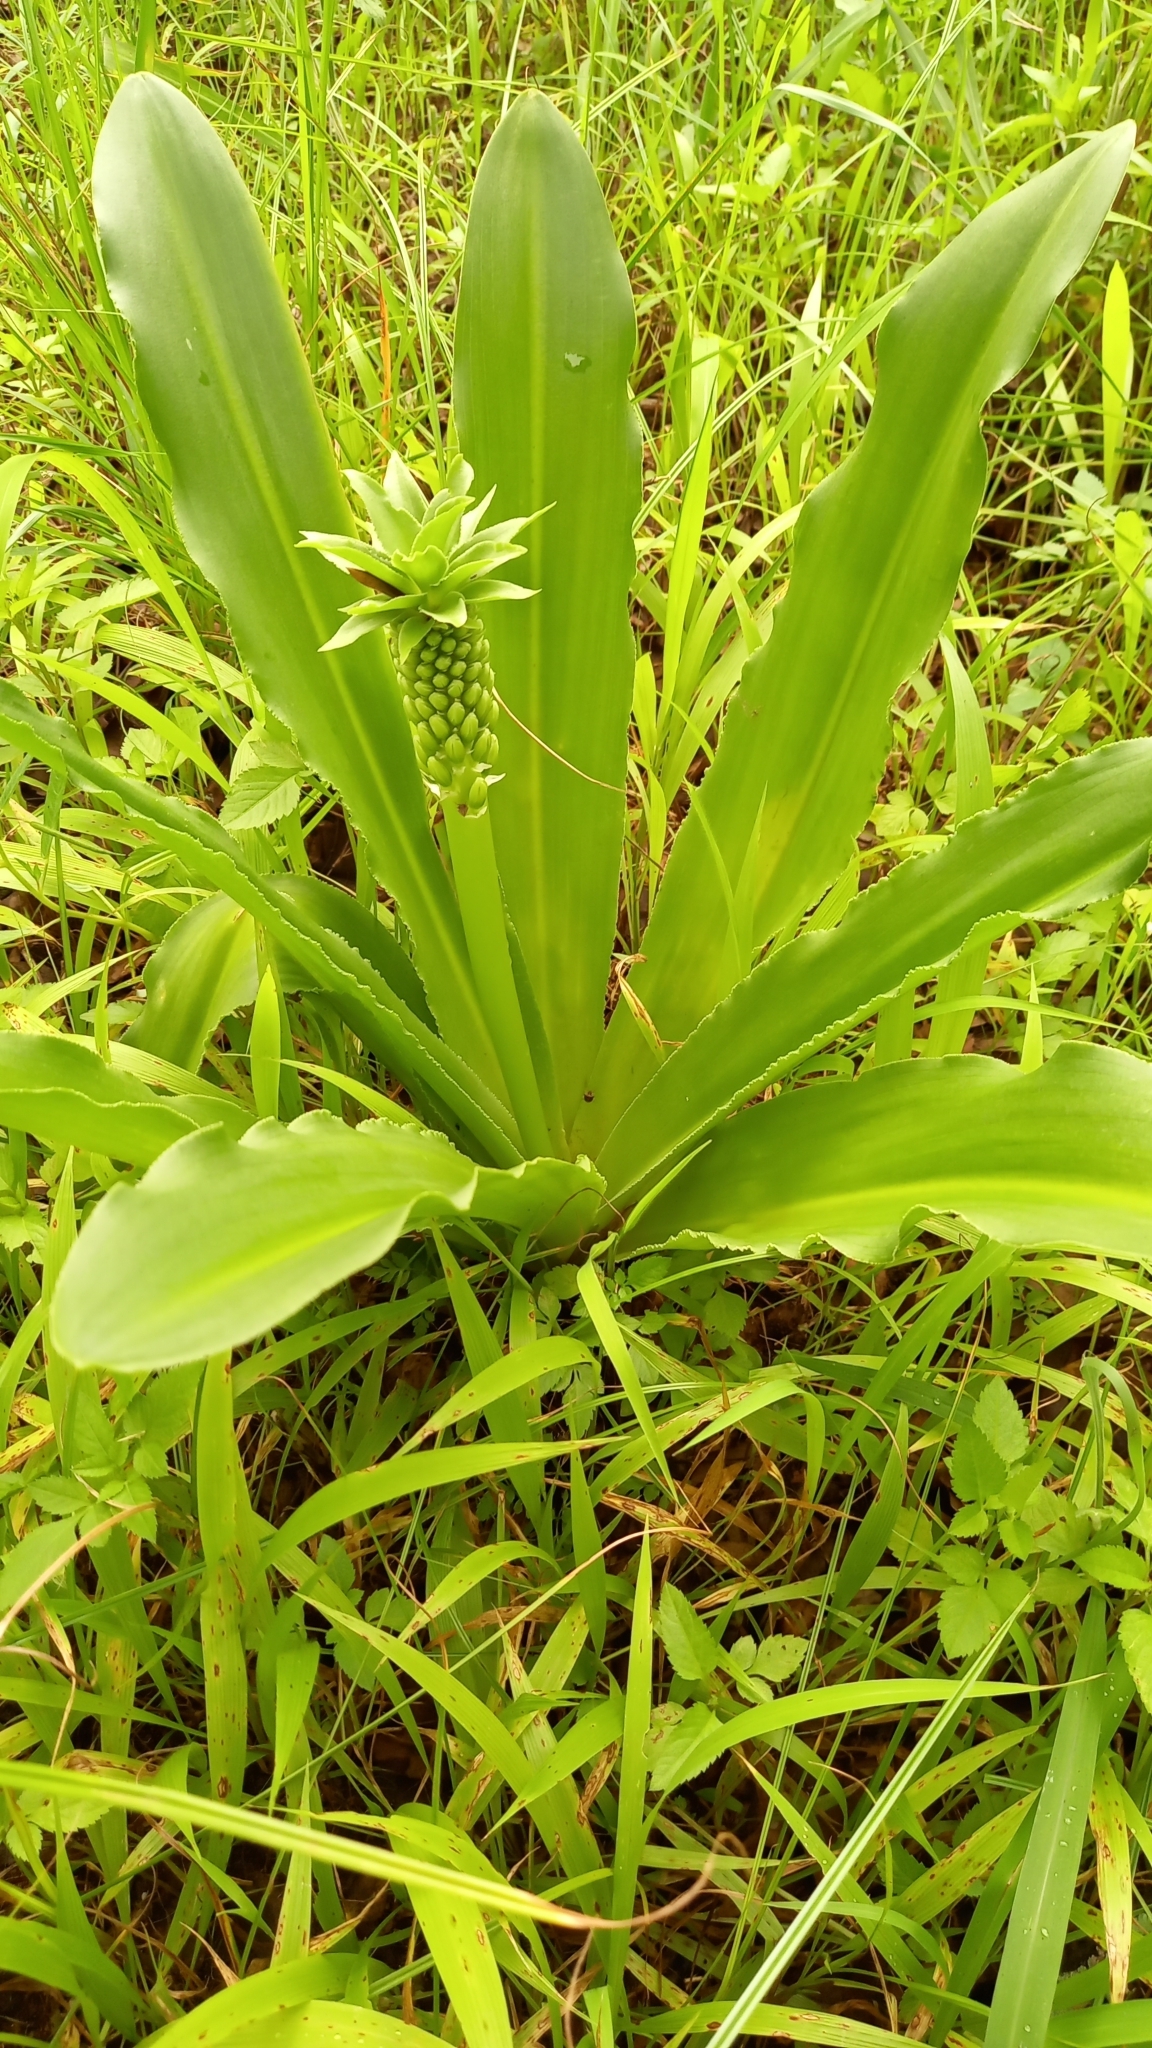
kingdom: Plantae
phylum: Tracheophyta
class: Liliopsida
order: Asparagales
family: Asparagaceae
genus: Eucomis
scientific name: Eucomis autumnalis
